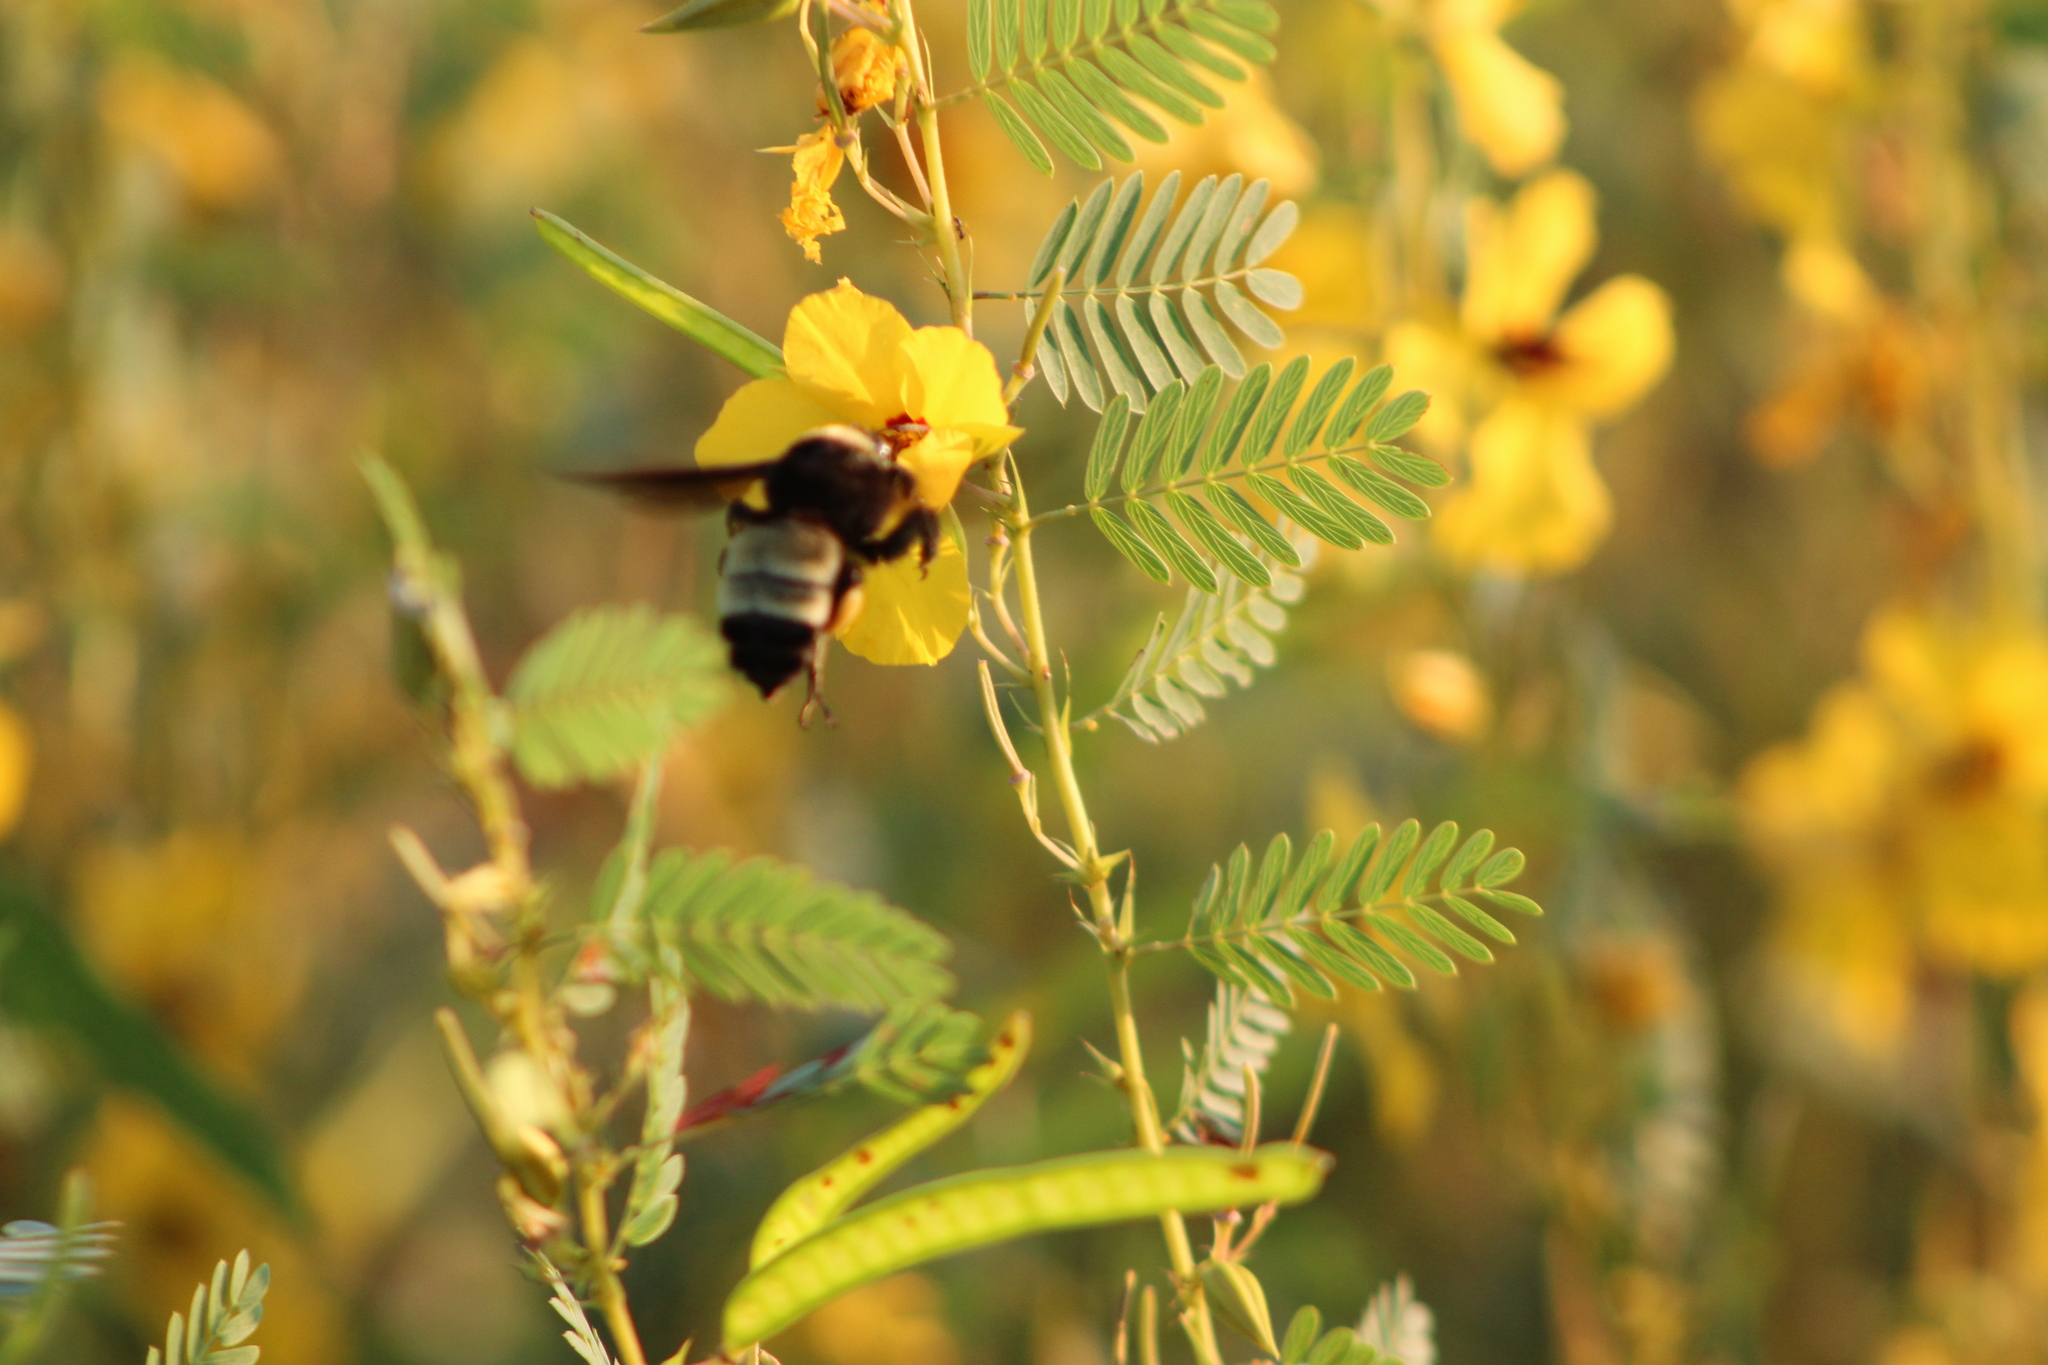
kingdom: Animalia
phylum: Arthropoda
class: Insecta
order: Hymenoptera
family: Apidae
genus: Bombus
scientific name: Bombus pensylvanicus
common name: Bumble bee
